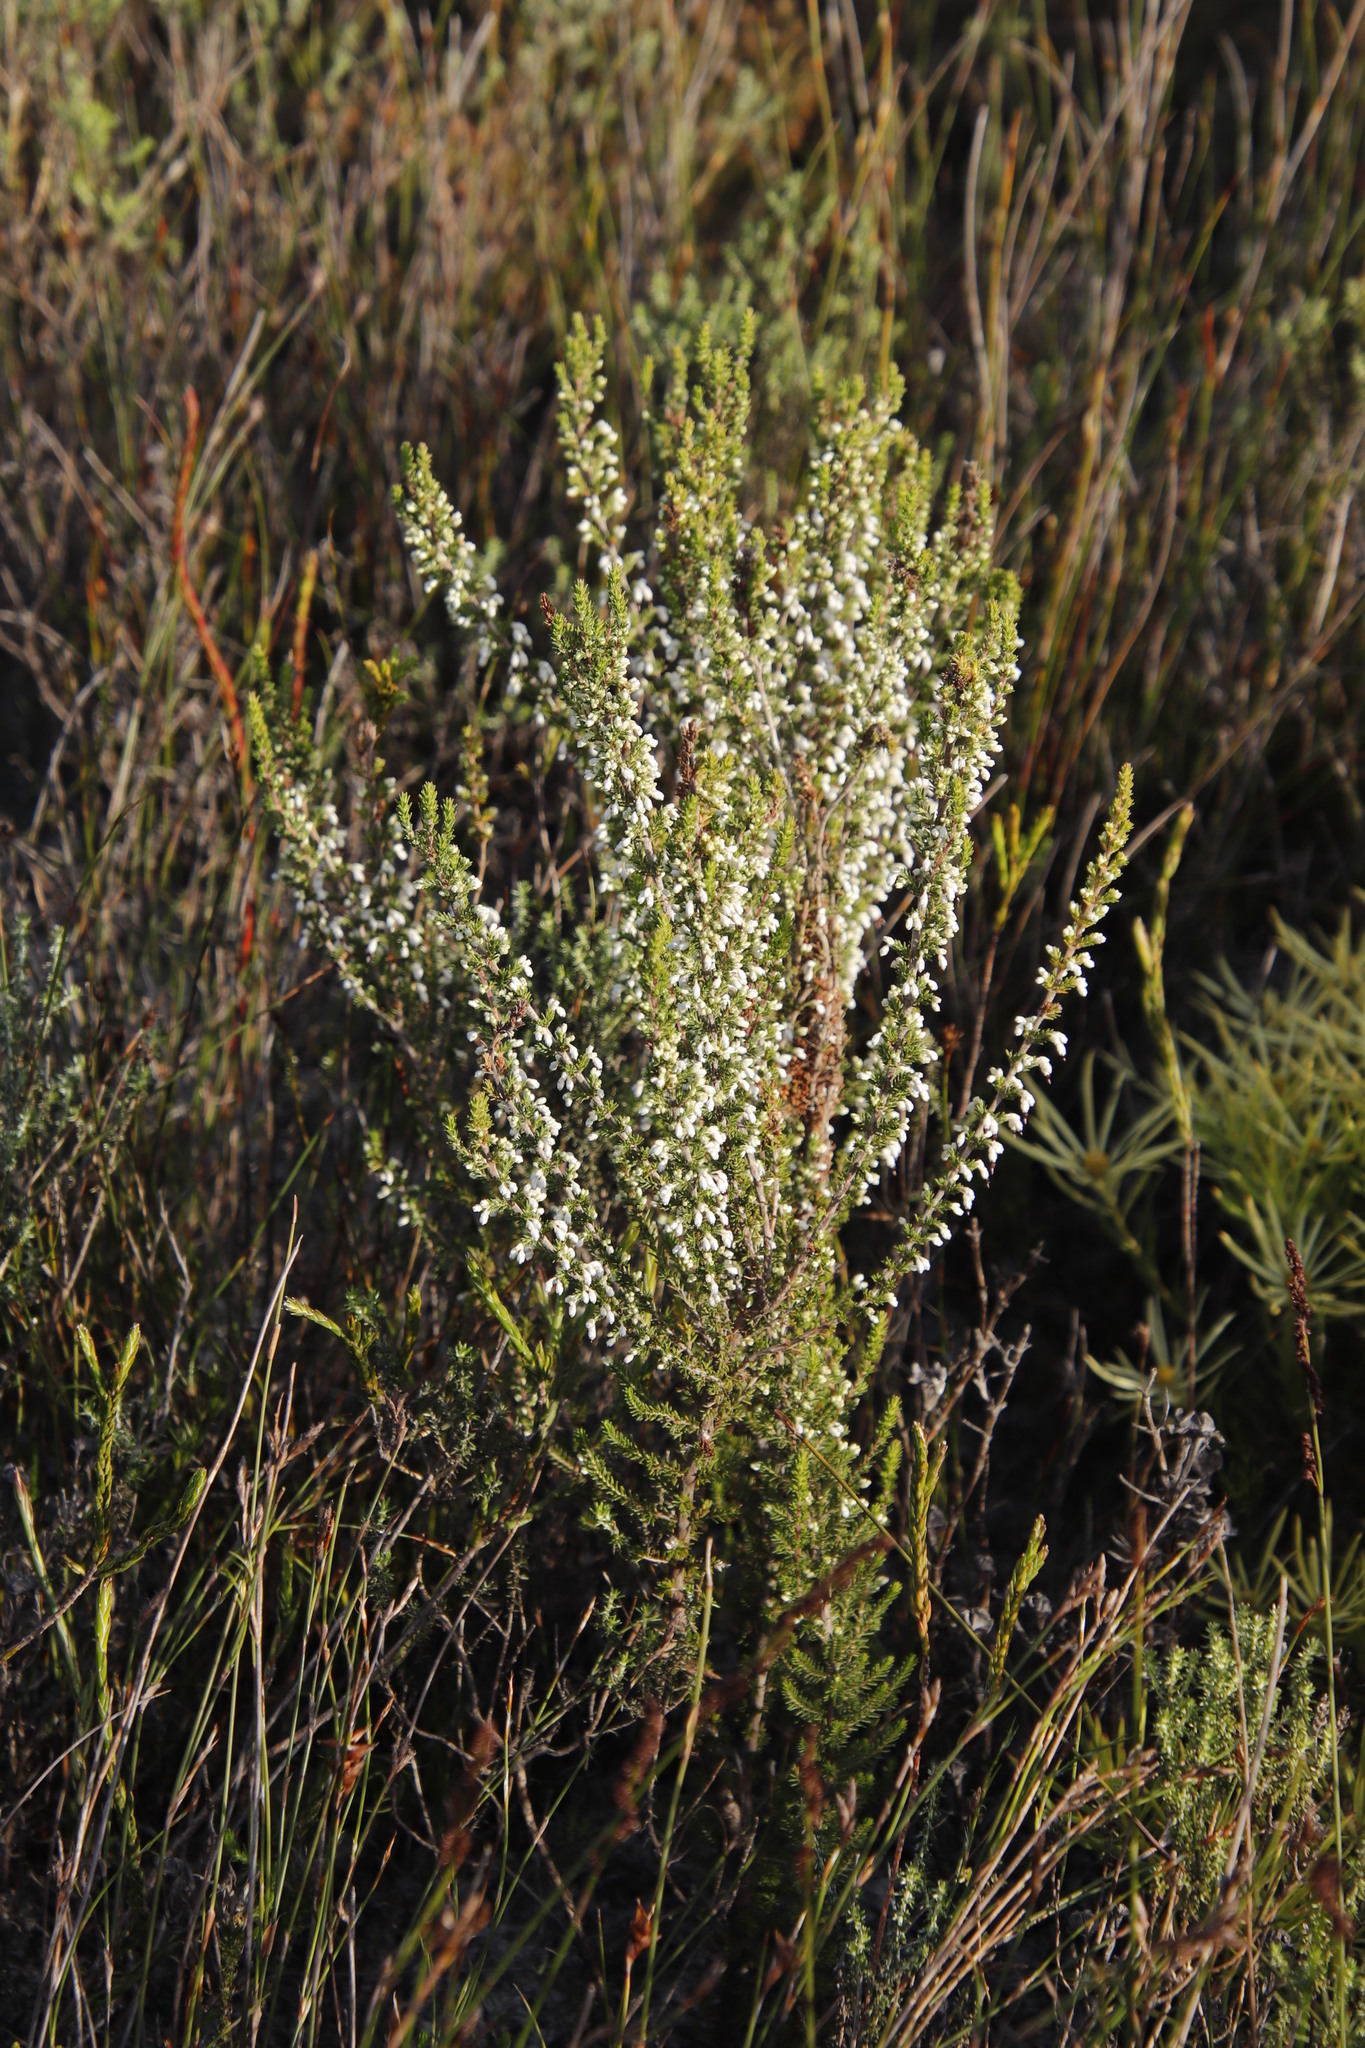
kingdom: Plantae
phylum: Tracheophyta
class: Magnoliopsida
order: Ericales
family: Ericaceae
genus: Erica
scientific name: Erica imbricata
